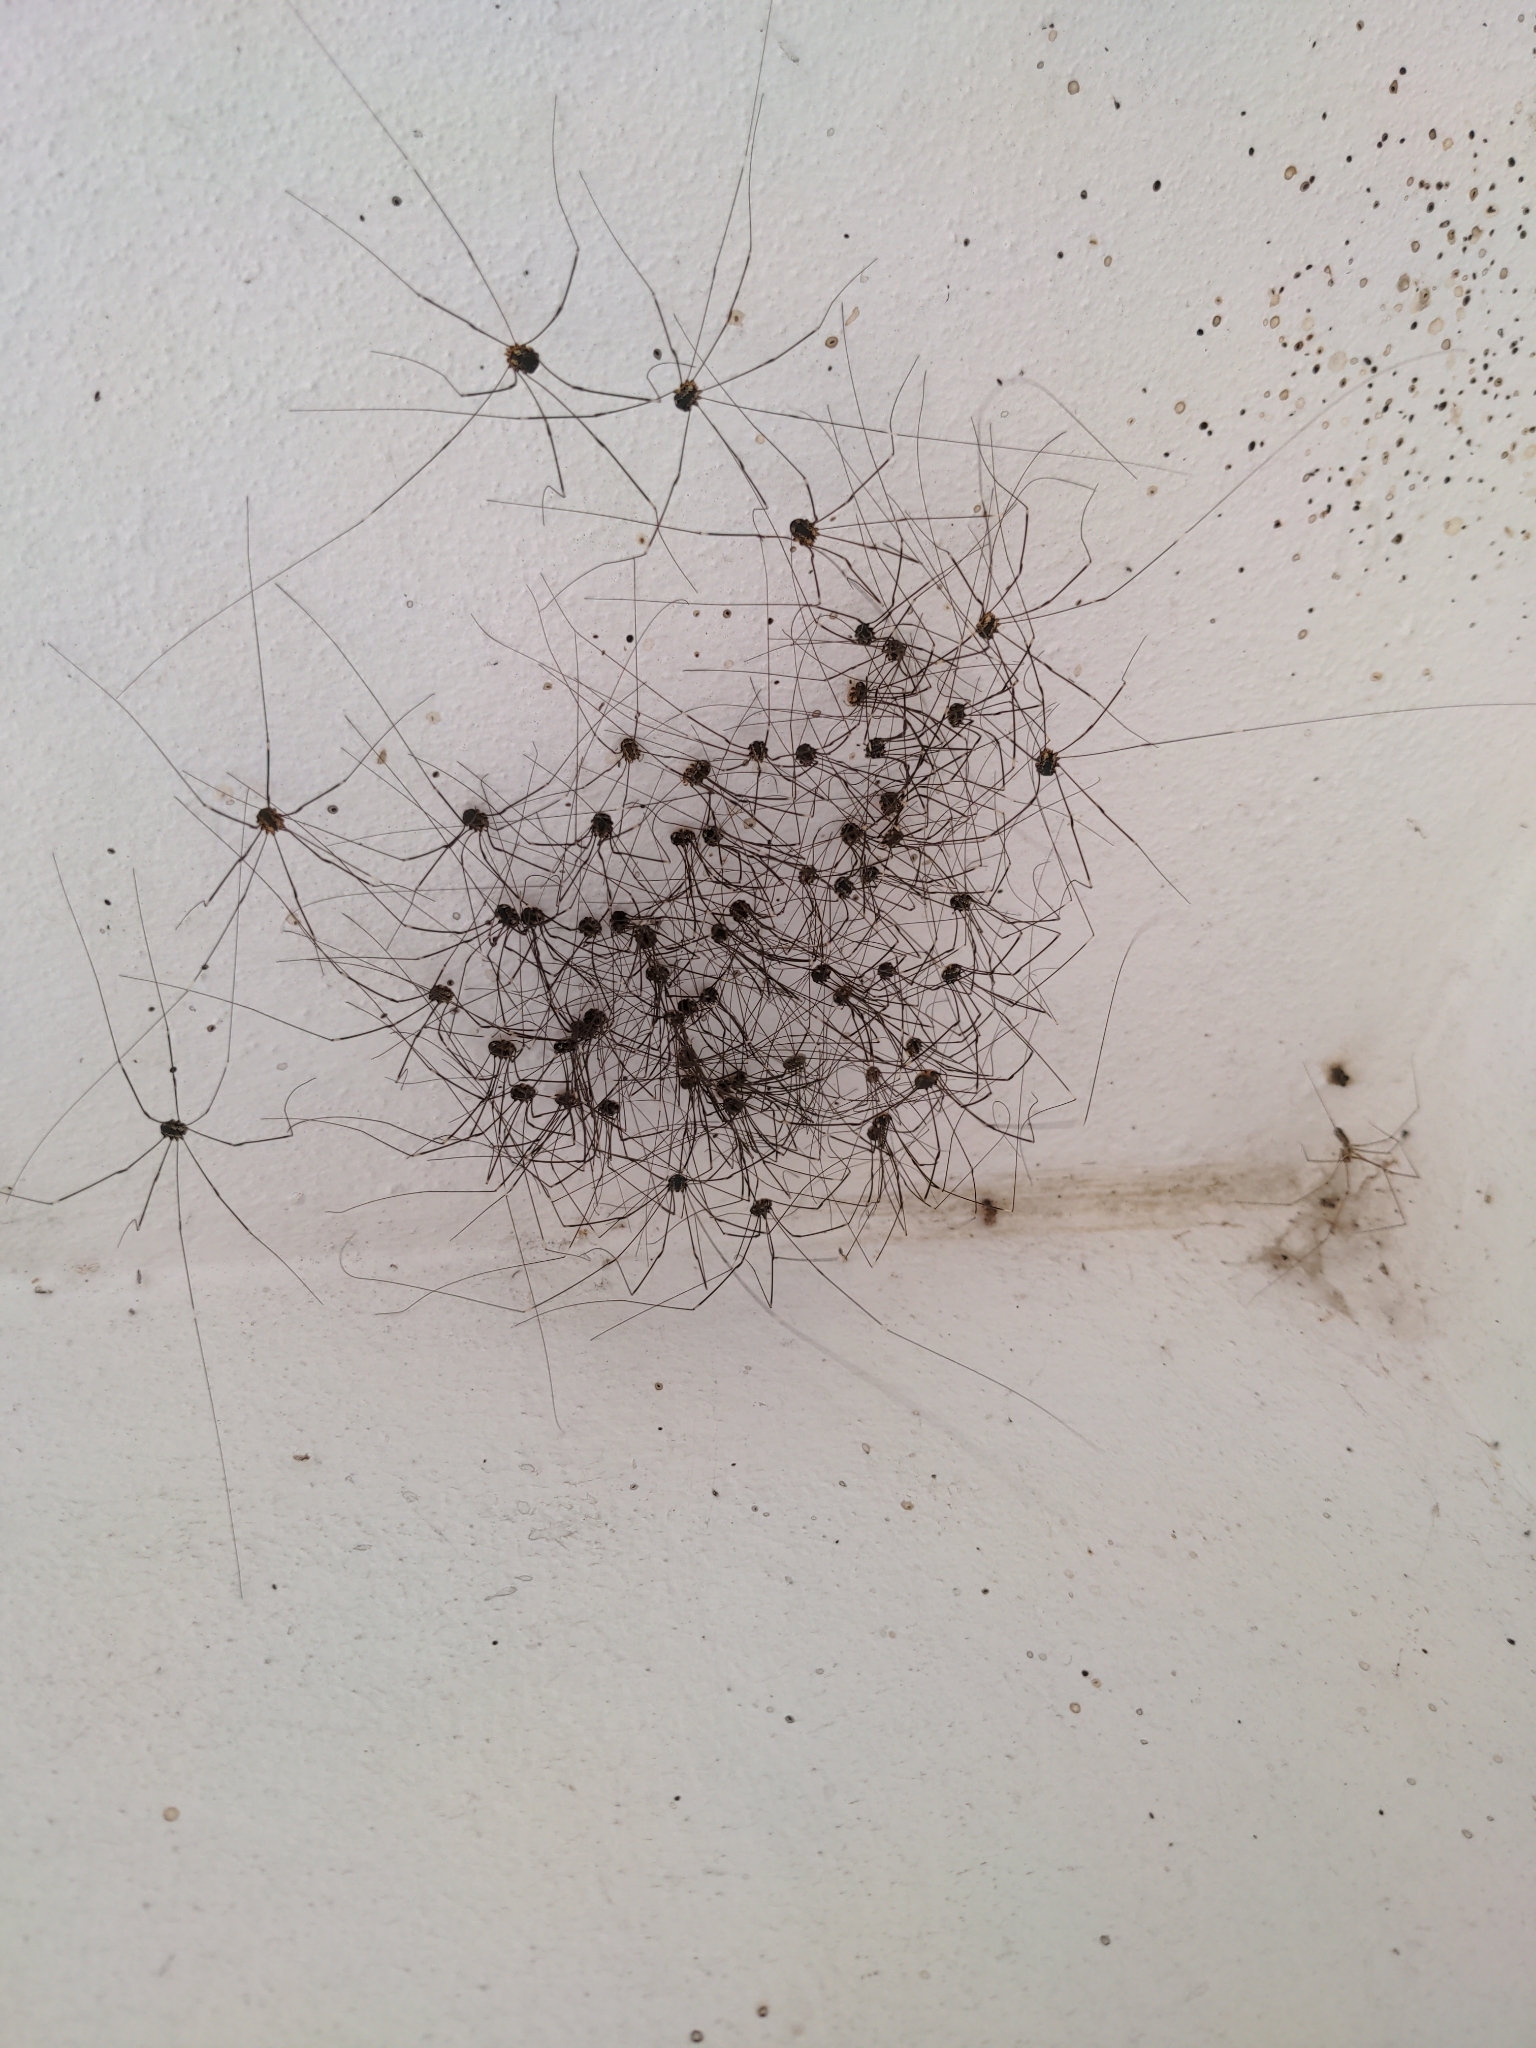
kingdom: Animalia
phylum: Arthropoda
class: Arachnida
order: Opiliones
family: Sclerosomatidae
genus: Leiobunum
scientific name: Leiobunum
